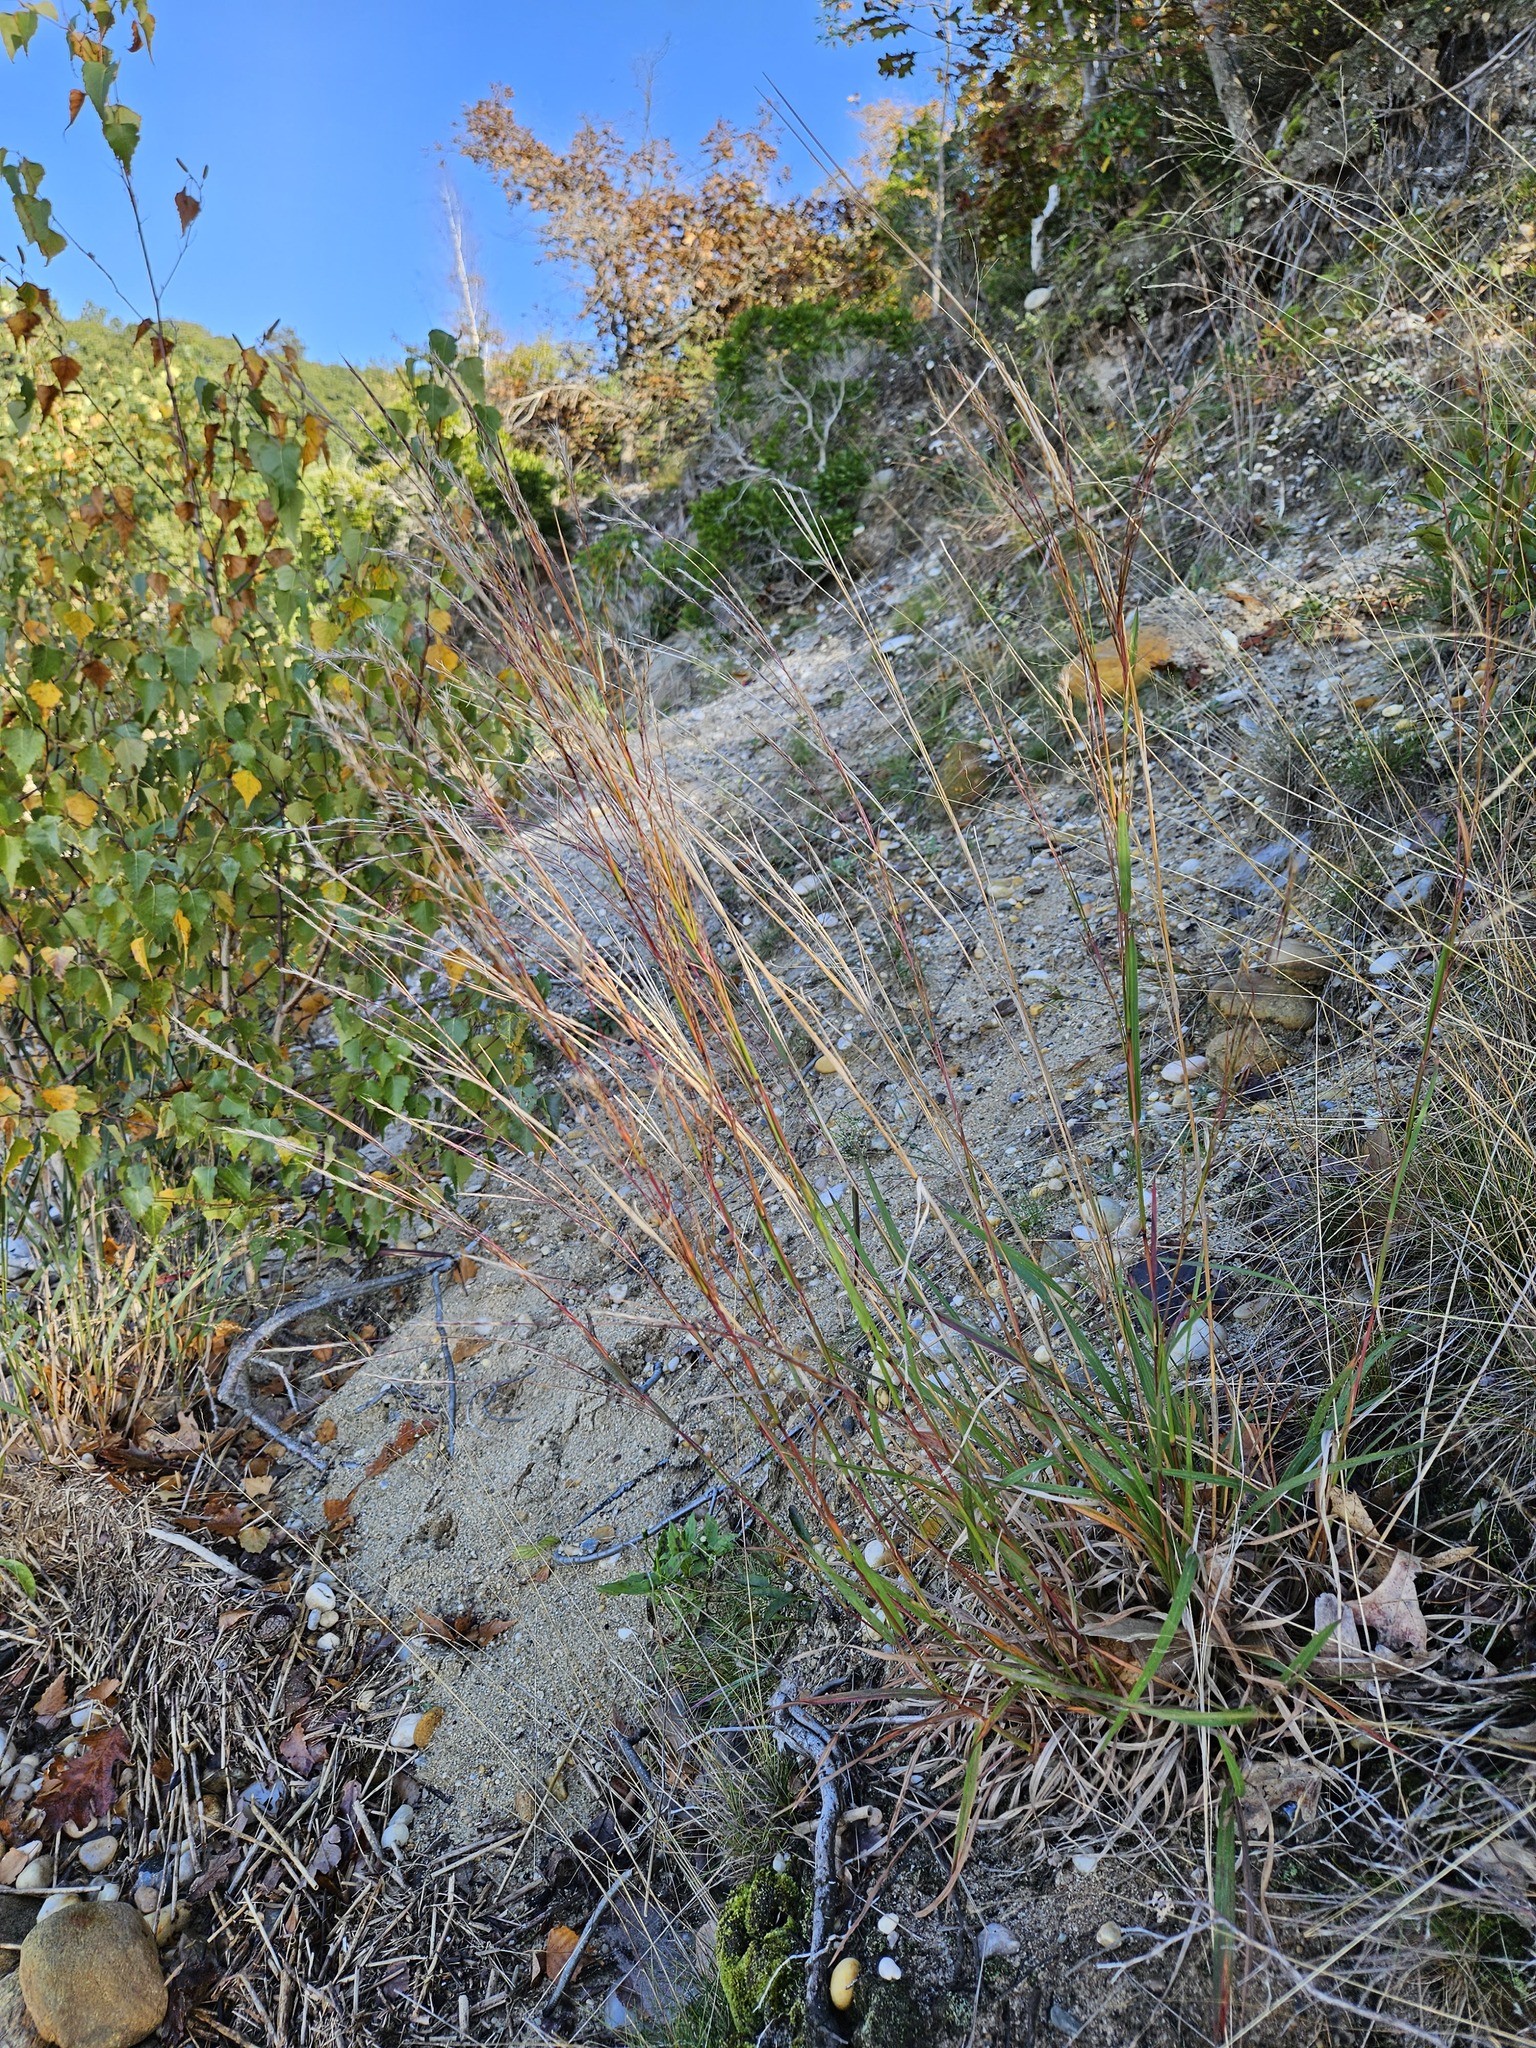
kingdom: Plantae
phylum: Tracheophyta
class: Liliopsida
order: Poales
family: Poaceae
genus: Schizachyrium
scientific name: Schizachyrium scoparium
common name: Little bluestem
